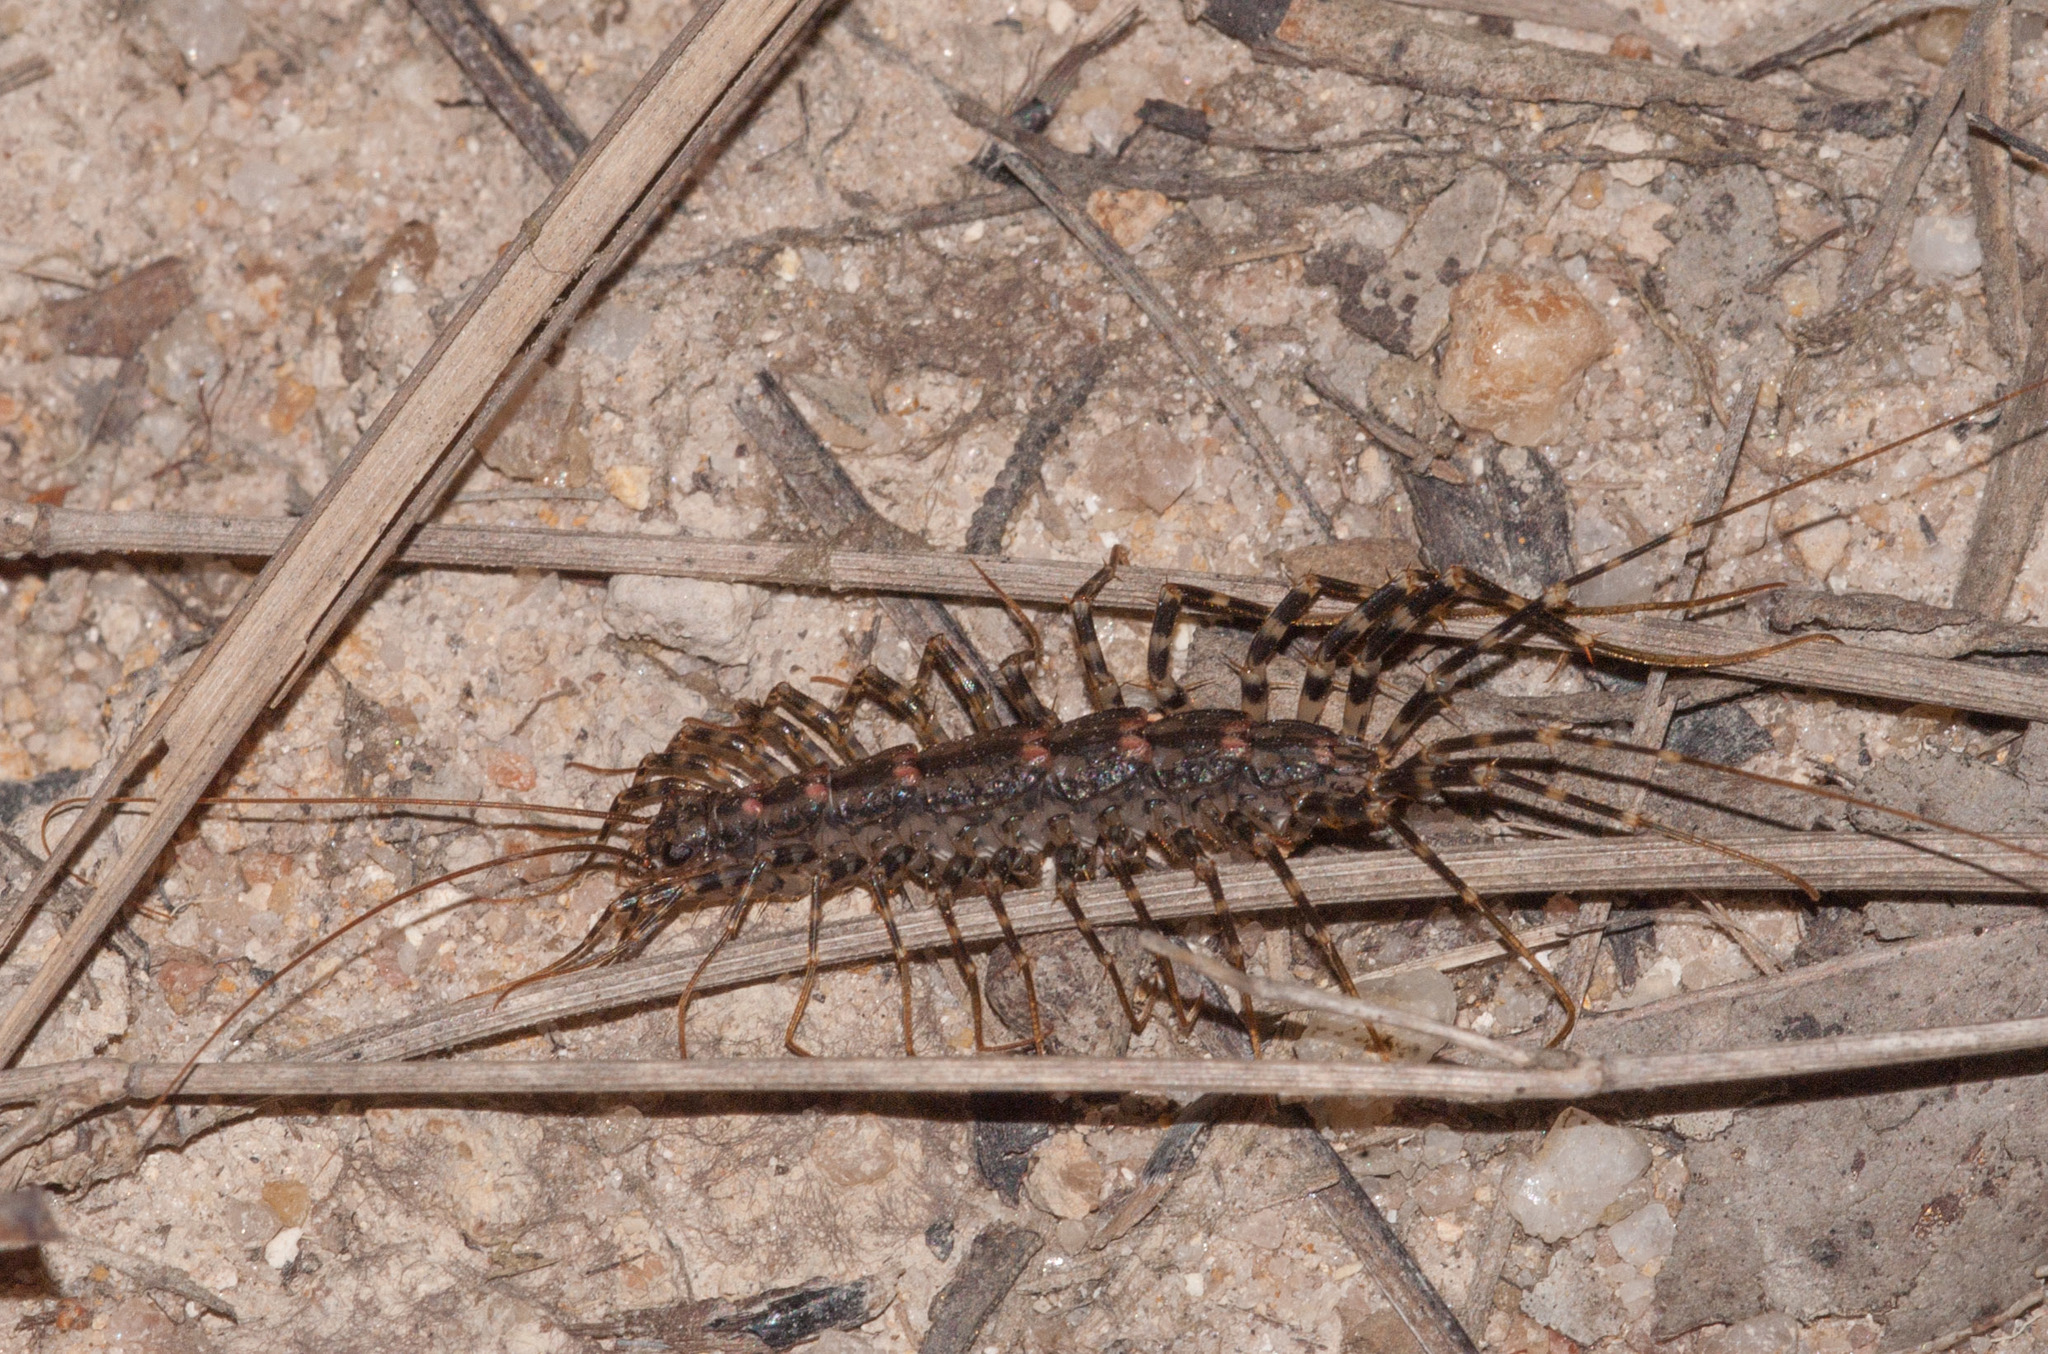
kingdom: Animalia
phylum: Arthropoda
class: Chilopoda
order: Scutigeromorpha
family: Scutigeridae
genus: Allothereua
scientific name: Allothereua maculata
